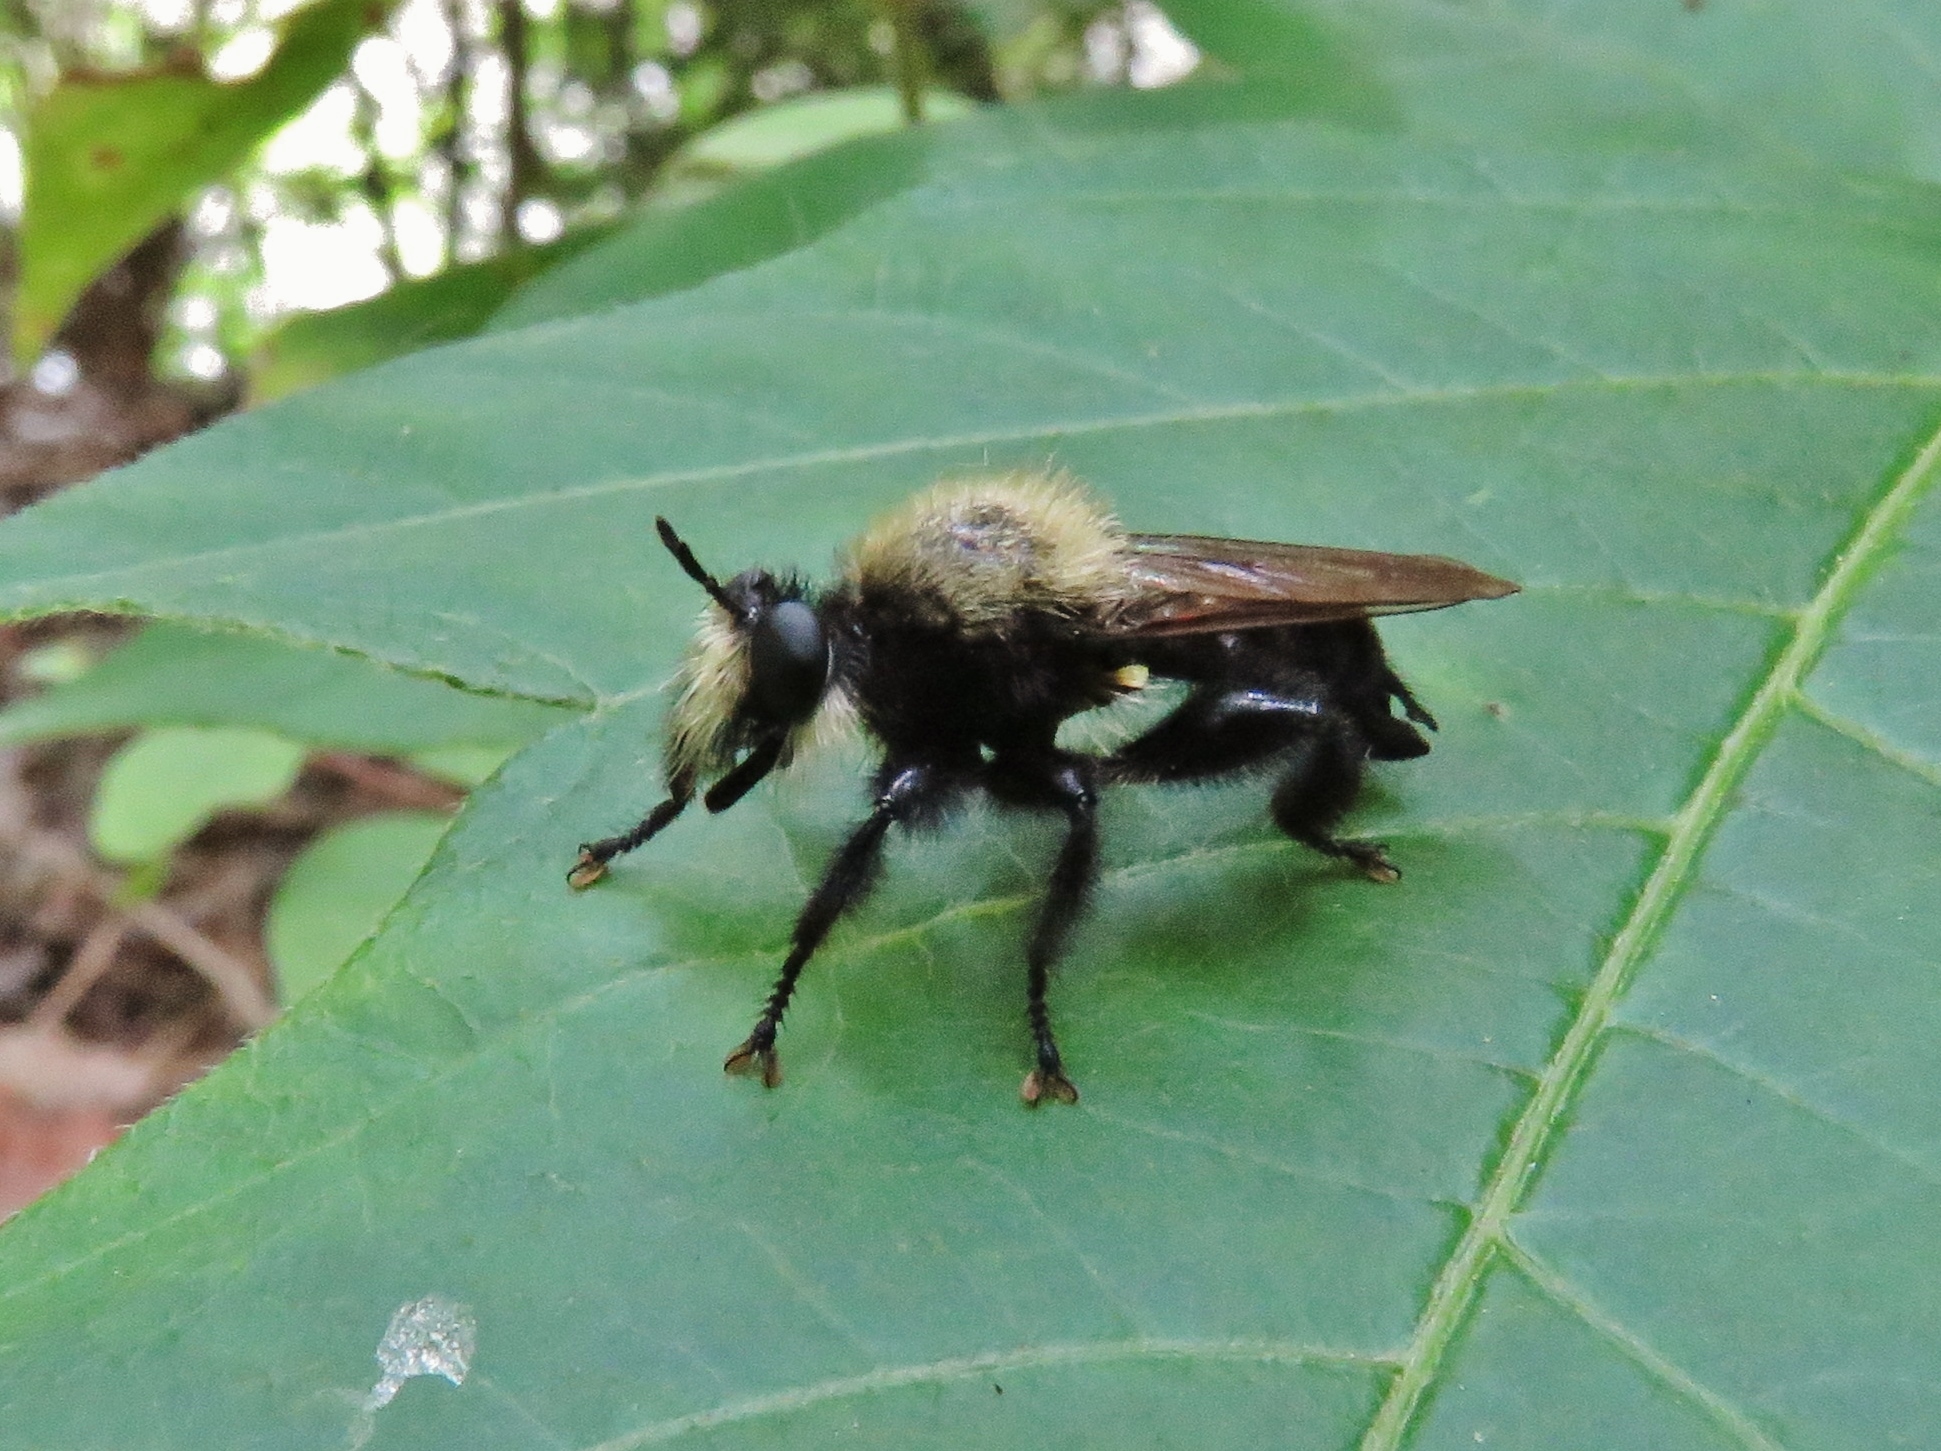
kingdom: Animalia
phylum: Arthropoda
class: Insecta
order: Diptera
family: Asilidae
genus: Laphria
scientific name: Laphria flavicollis
